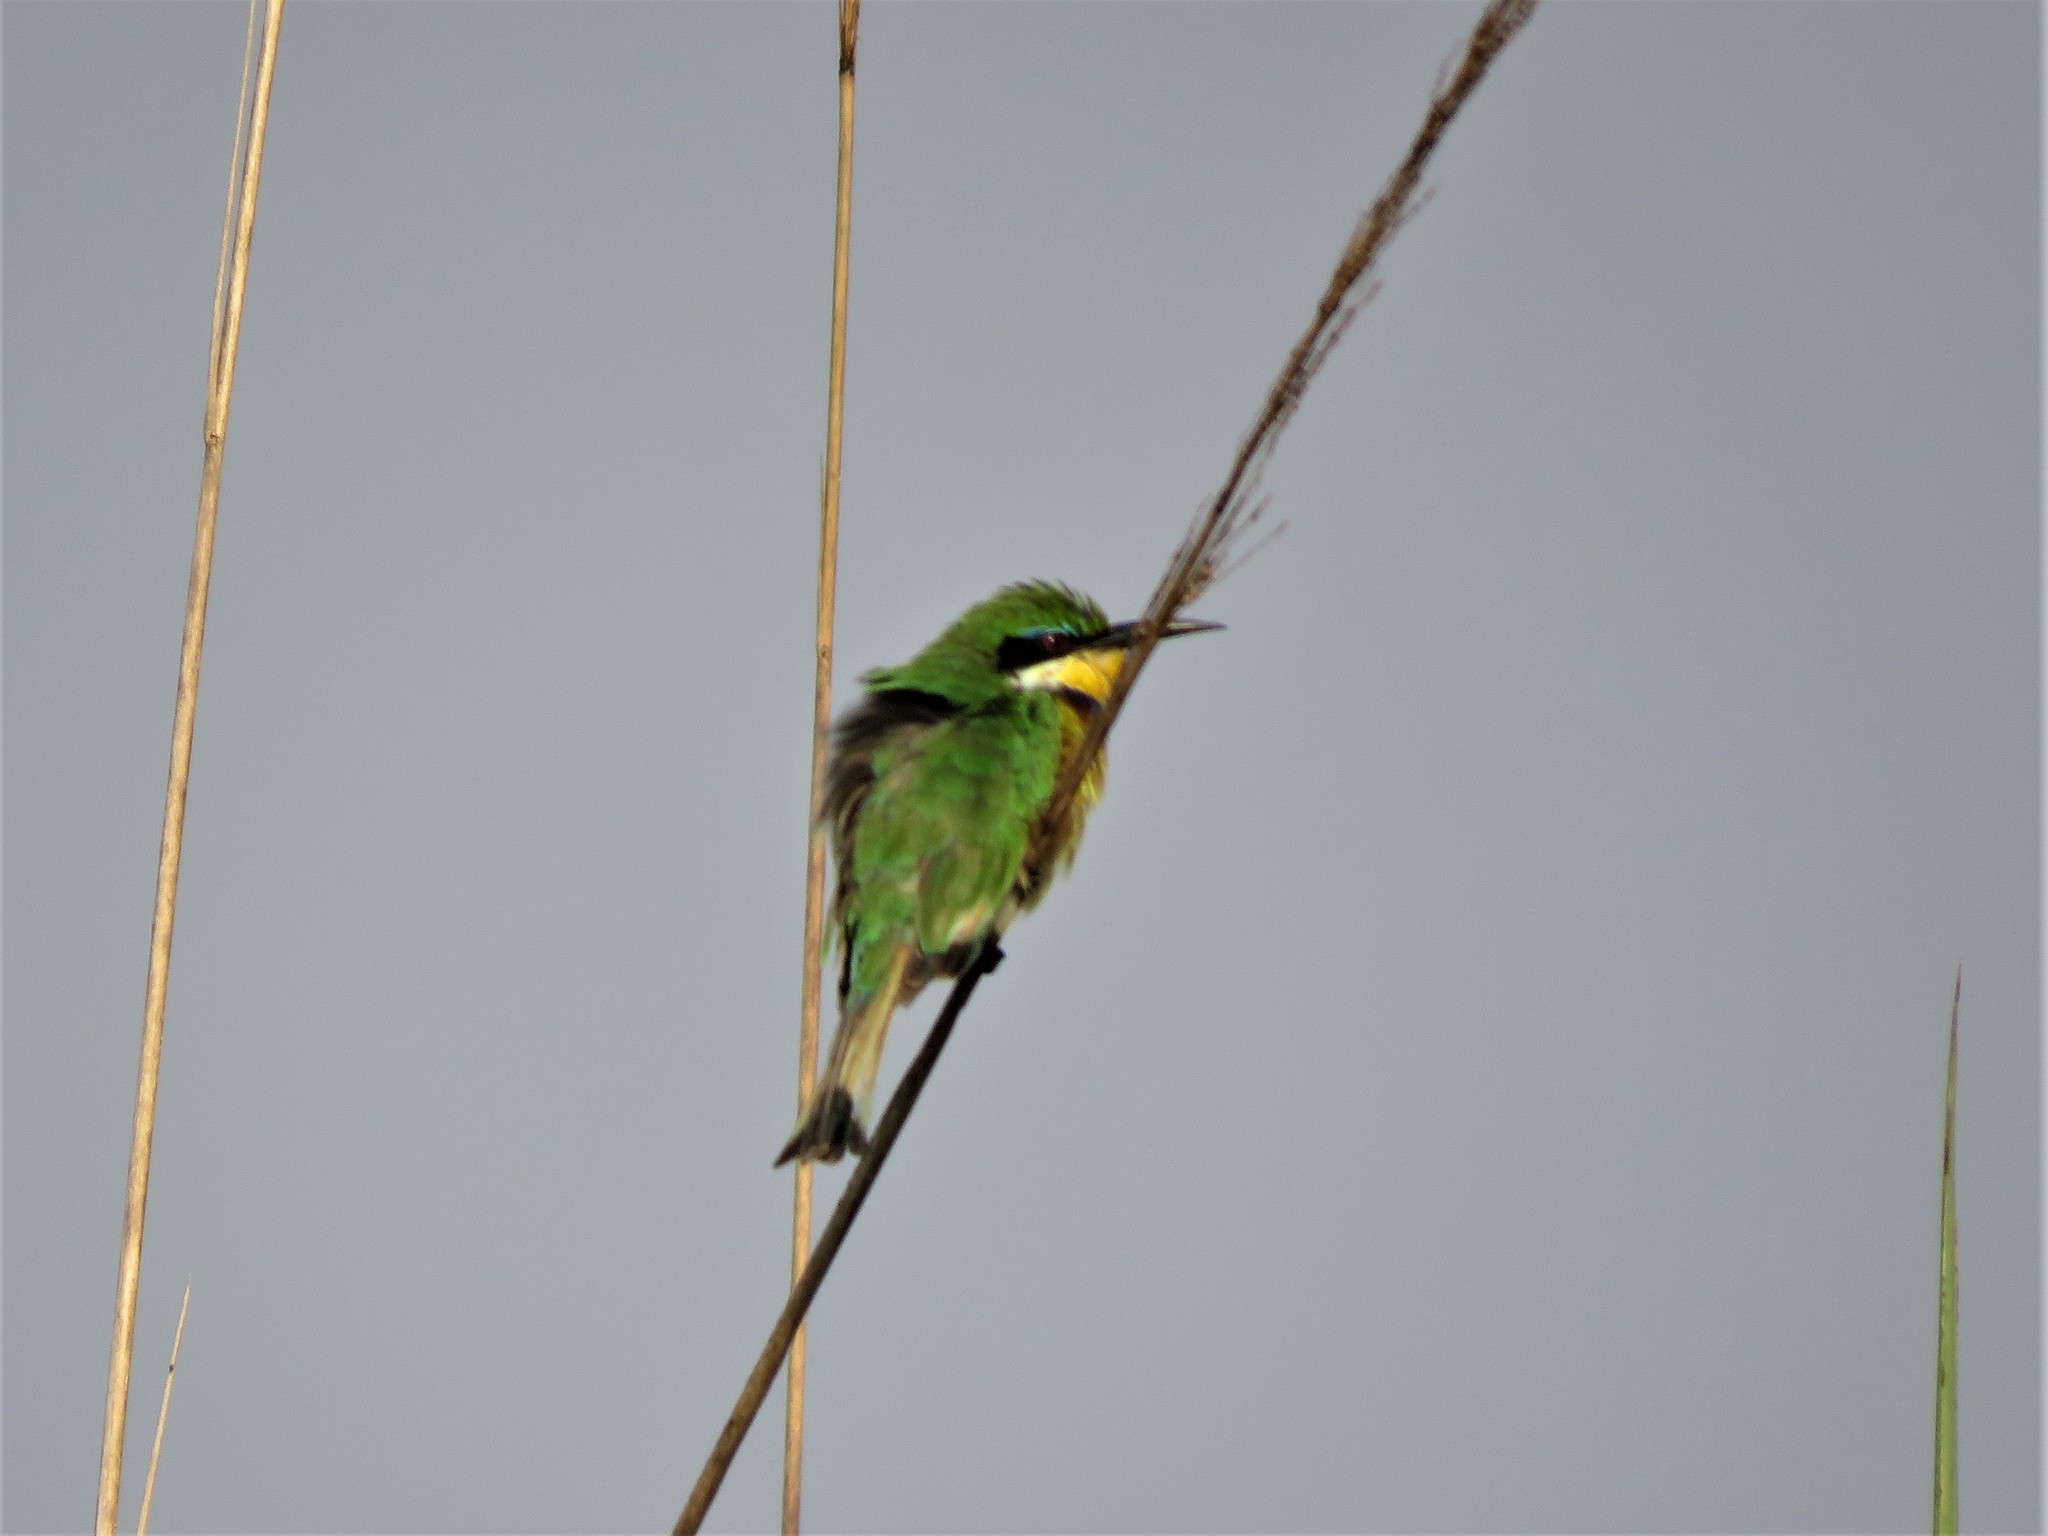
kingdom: Animalia
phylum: Chordata
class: Aves
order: Coraciiformes
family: Meropidae
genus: Merops
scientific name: Merops variegatus
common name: Blue-breasted bee-eater
